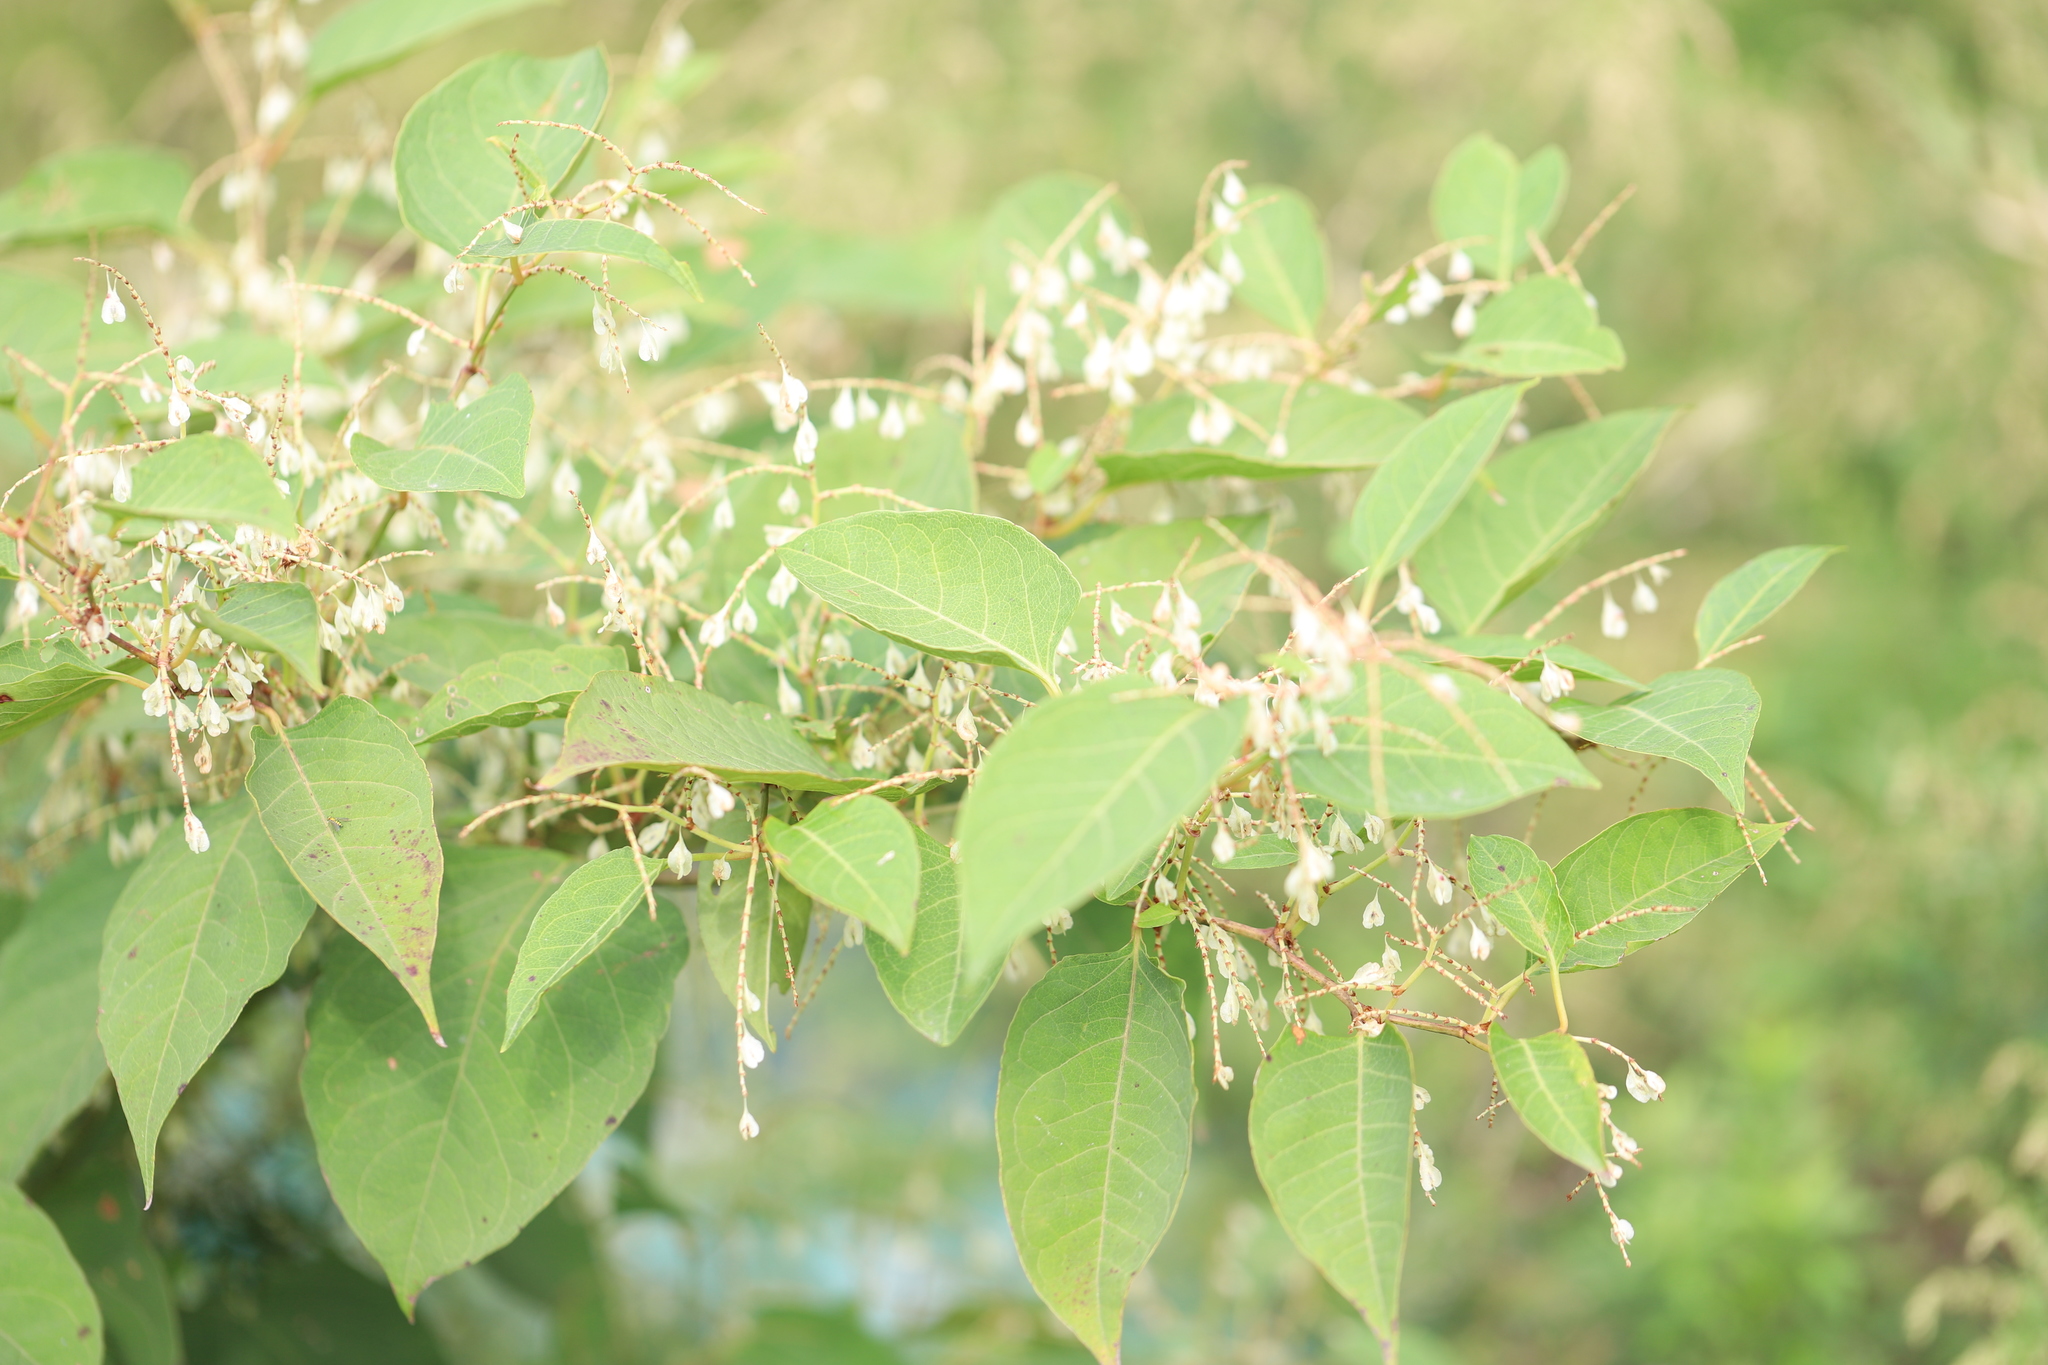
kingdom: Plantae
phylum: Tracheophyta
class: Magnoliopsida
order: Caryophyllales
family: Polygonaceae
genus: Reynoutria
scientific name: Reynoutria japonica
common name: Japanese knotweed
